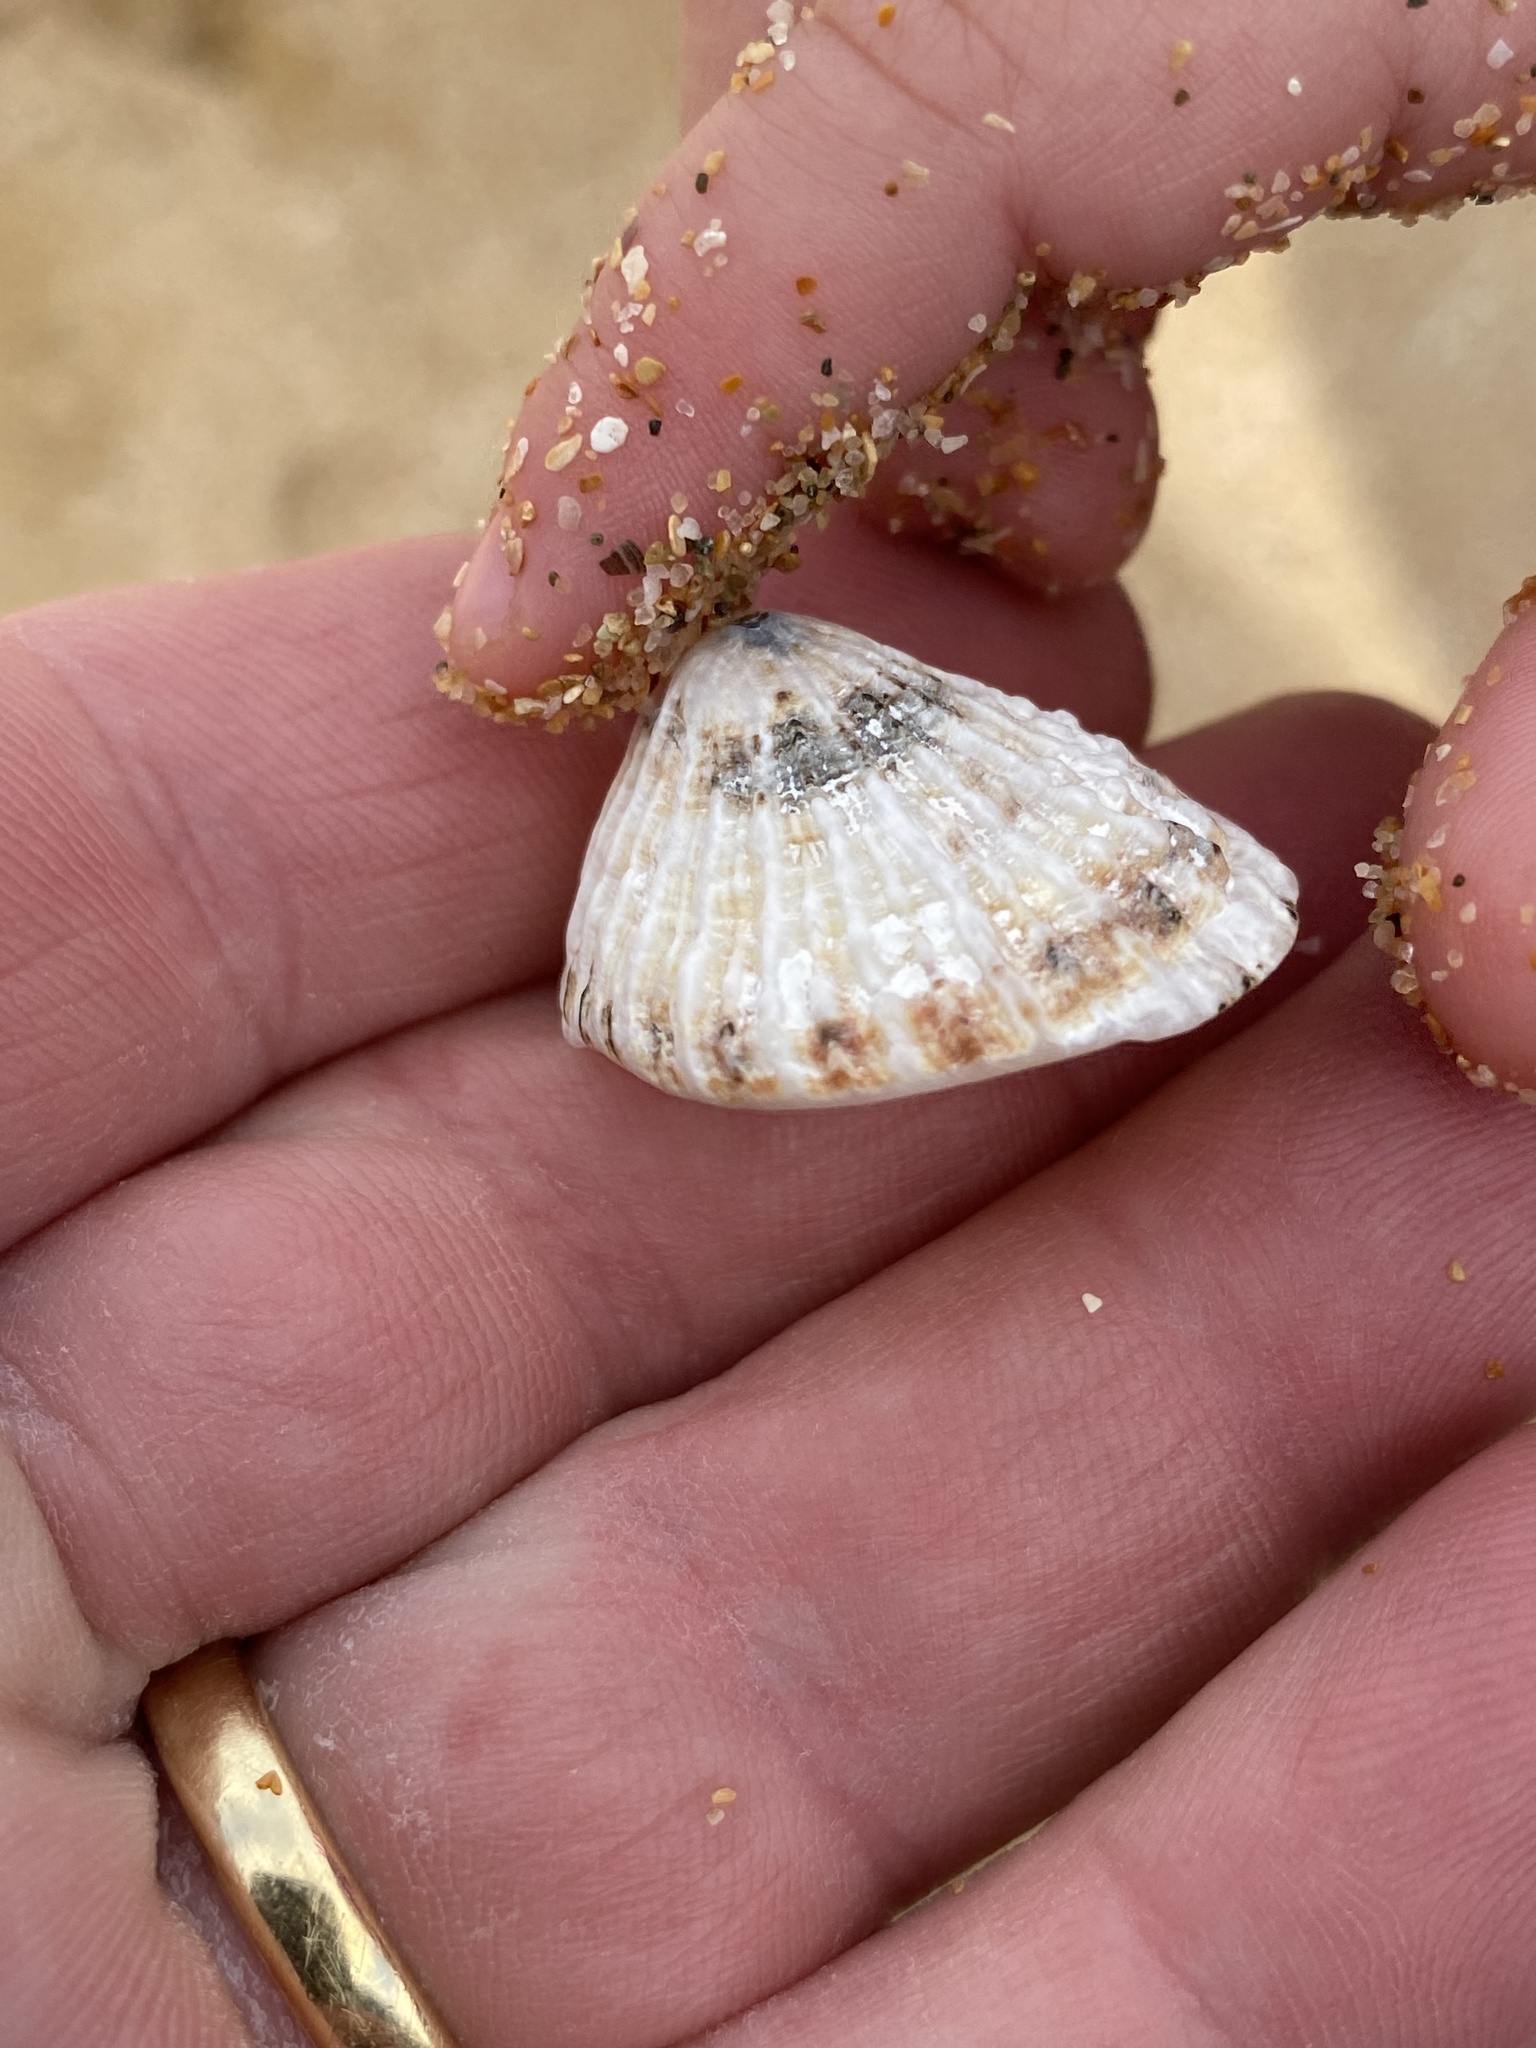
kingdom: Animalia
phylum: Mollusca
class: Gastropoda
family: Patellidae
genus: Scutellastra
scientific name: Scutellastra peronii
